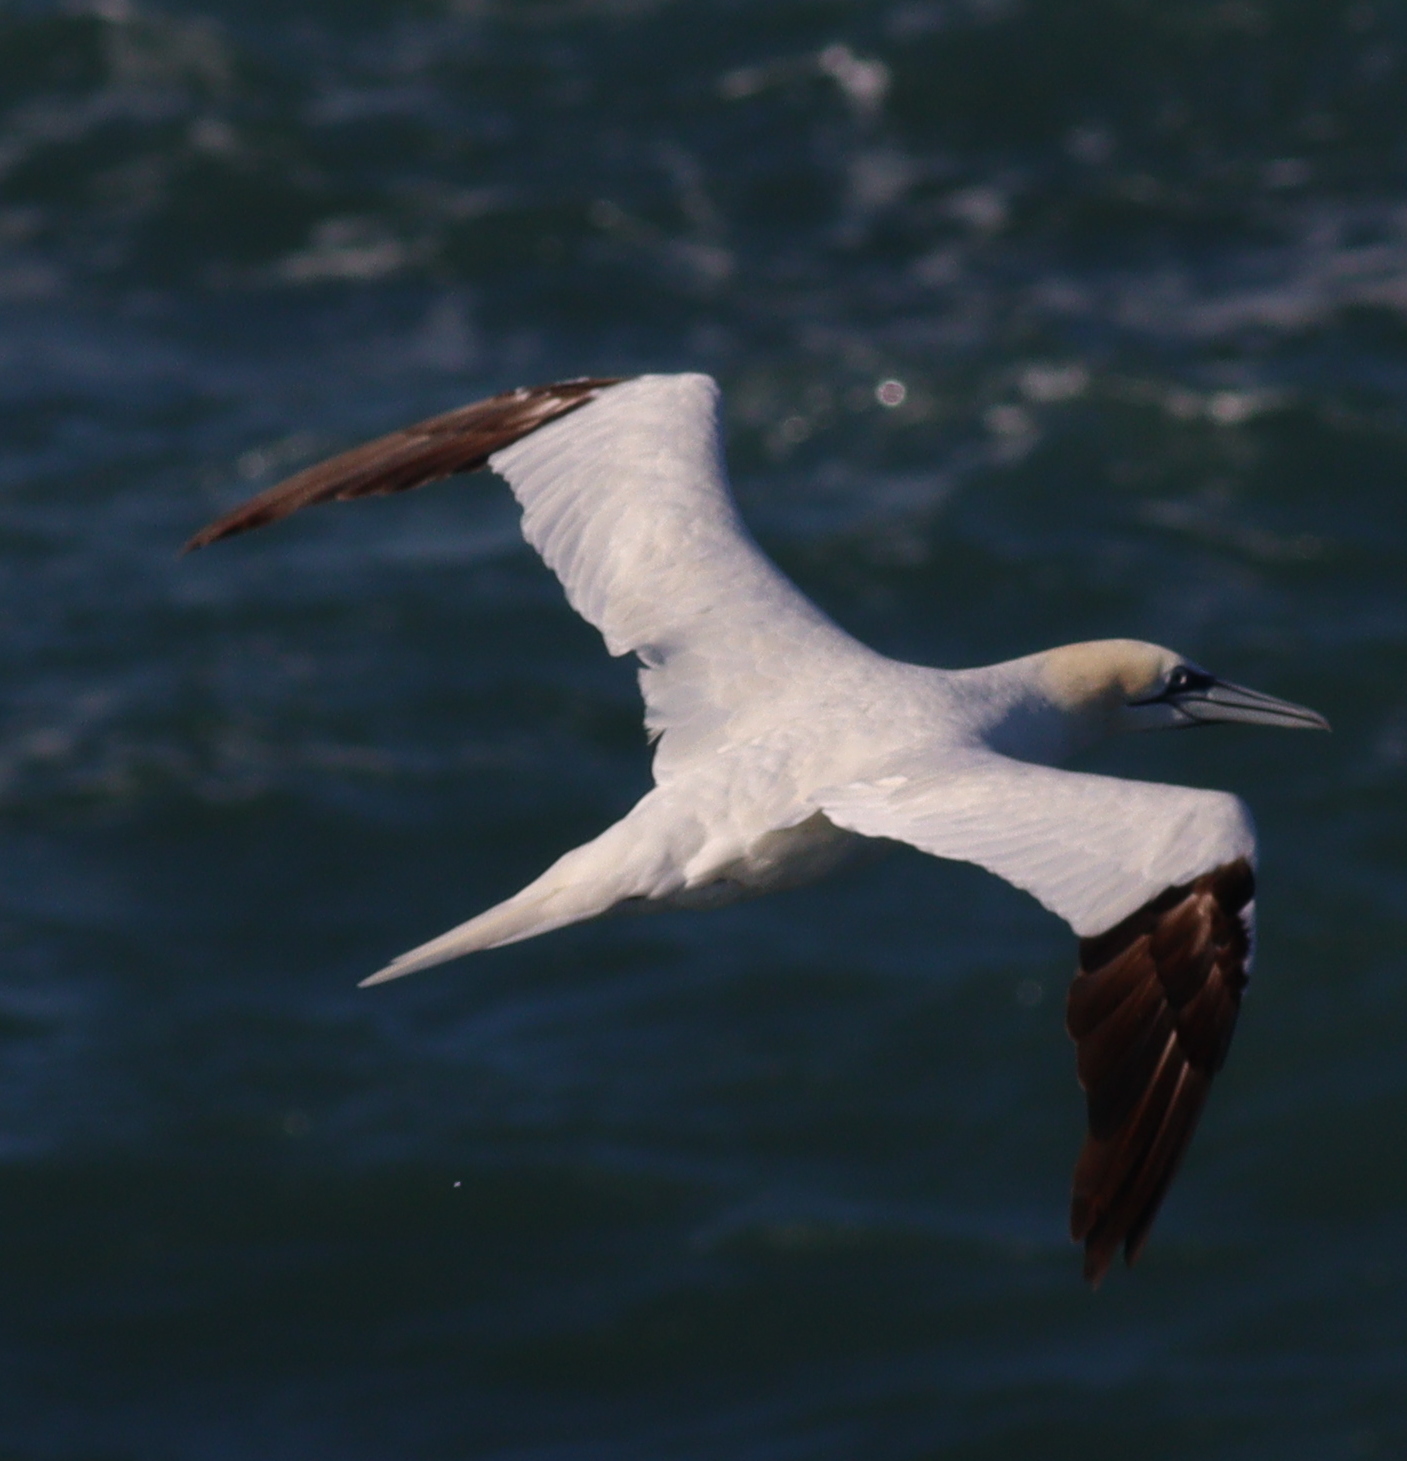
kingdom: Animalia
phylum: Chordata
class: Aves
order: Suliformes
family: Sulidae
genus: Morus
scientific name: Morus bassanus
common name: Northern gannet
